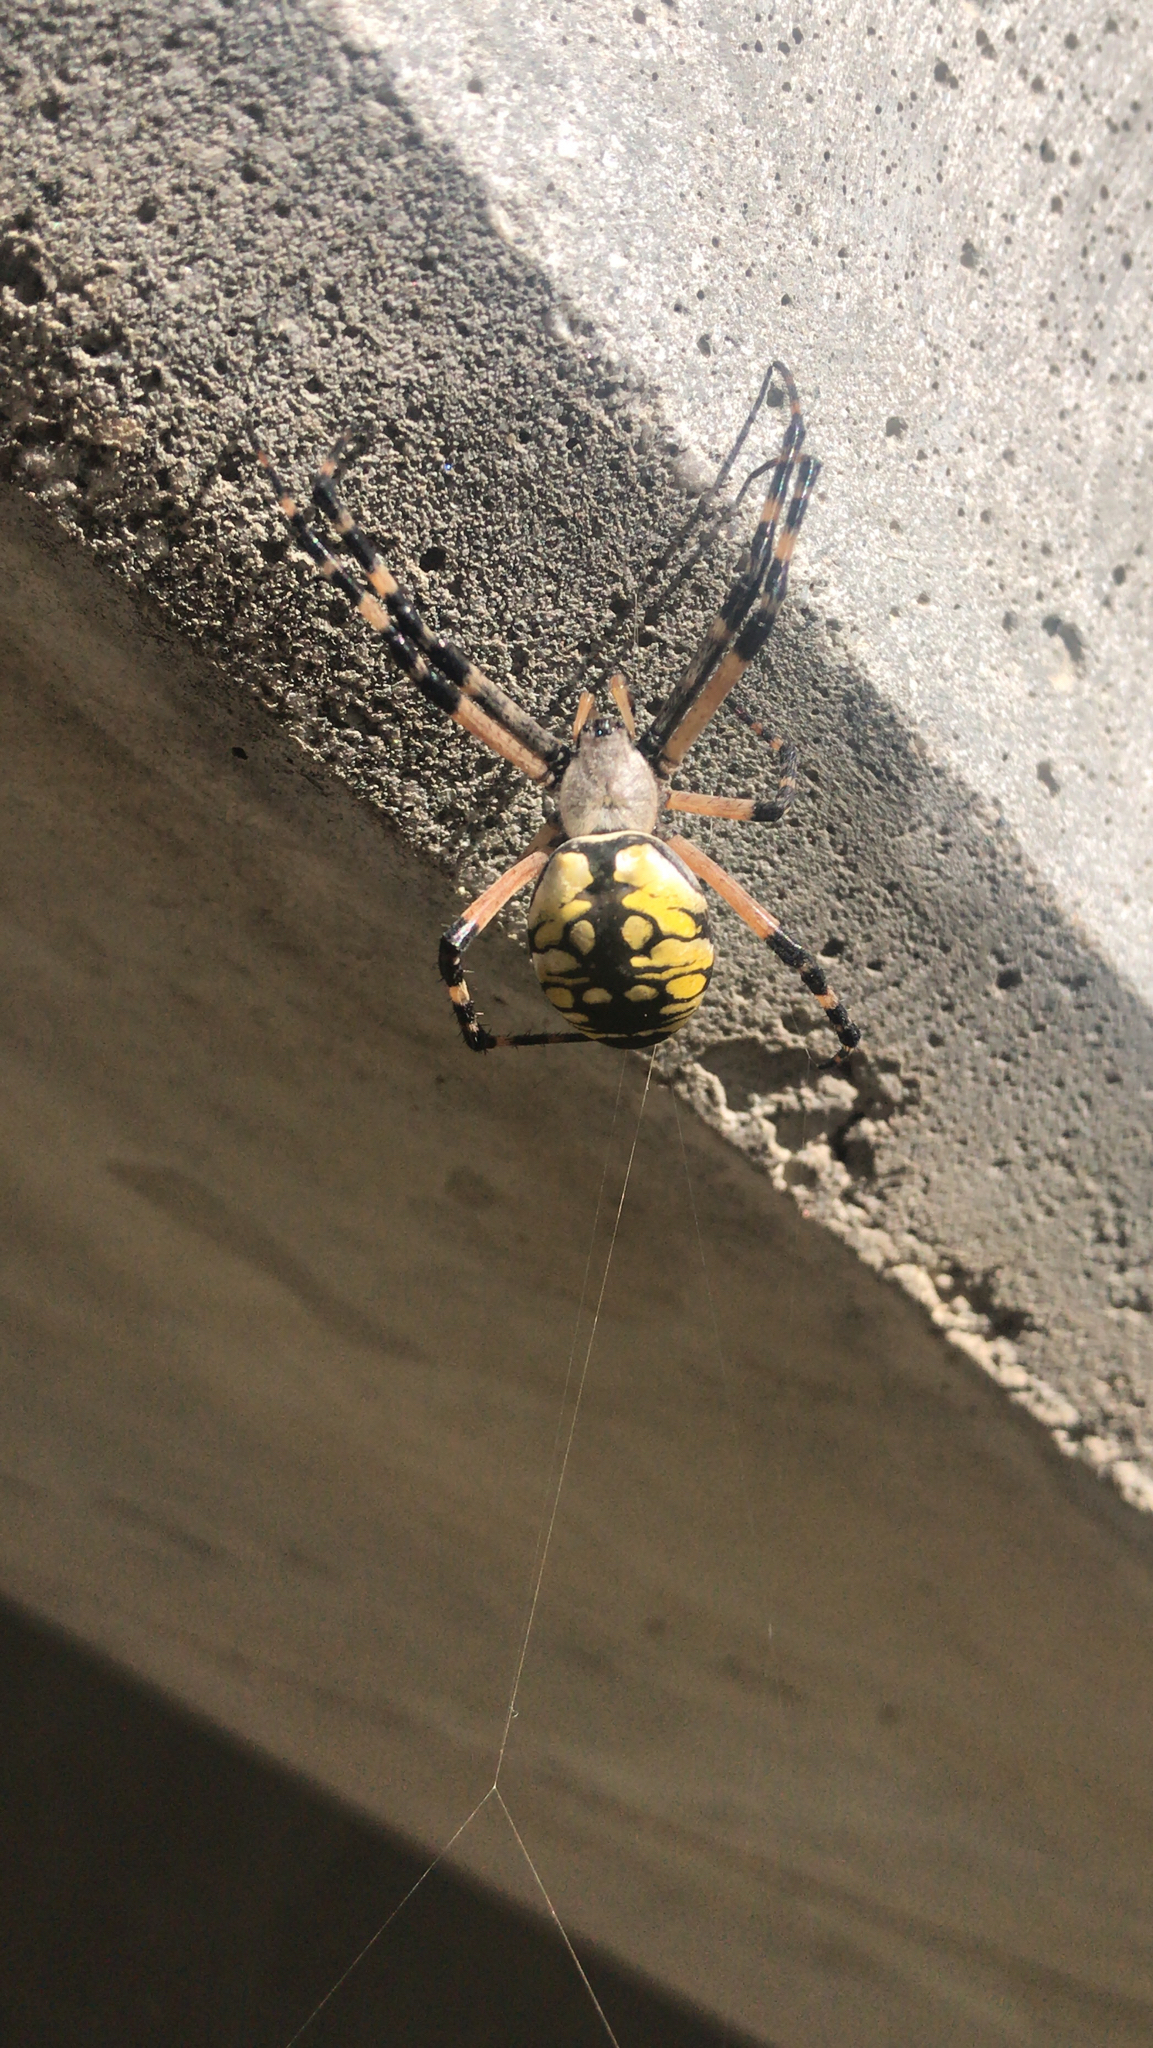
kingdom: Animalia
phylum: Arthropoda
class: Arachnida
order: Araneae
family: Araneidae
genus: Argiope
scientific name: Argiope aurantia
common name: Orb weavers
